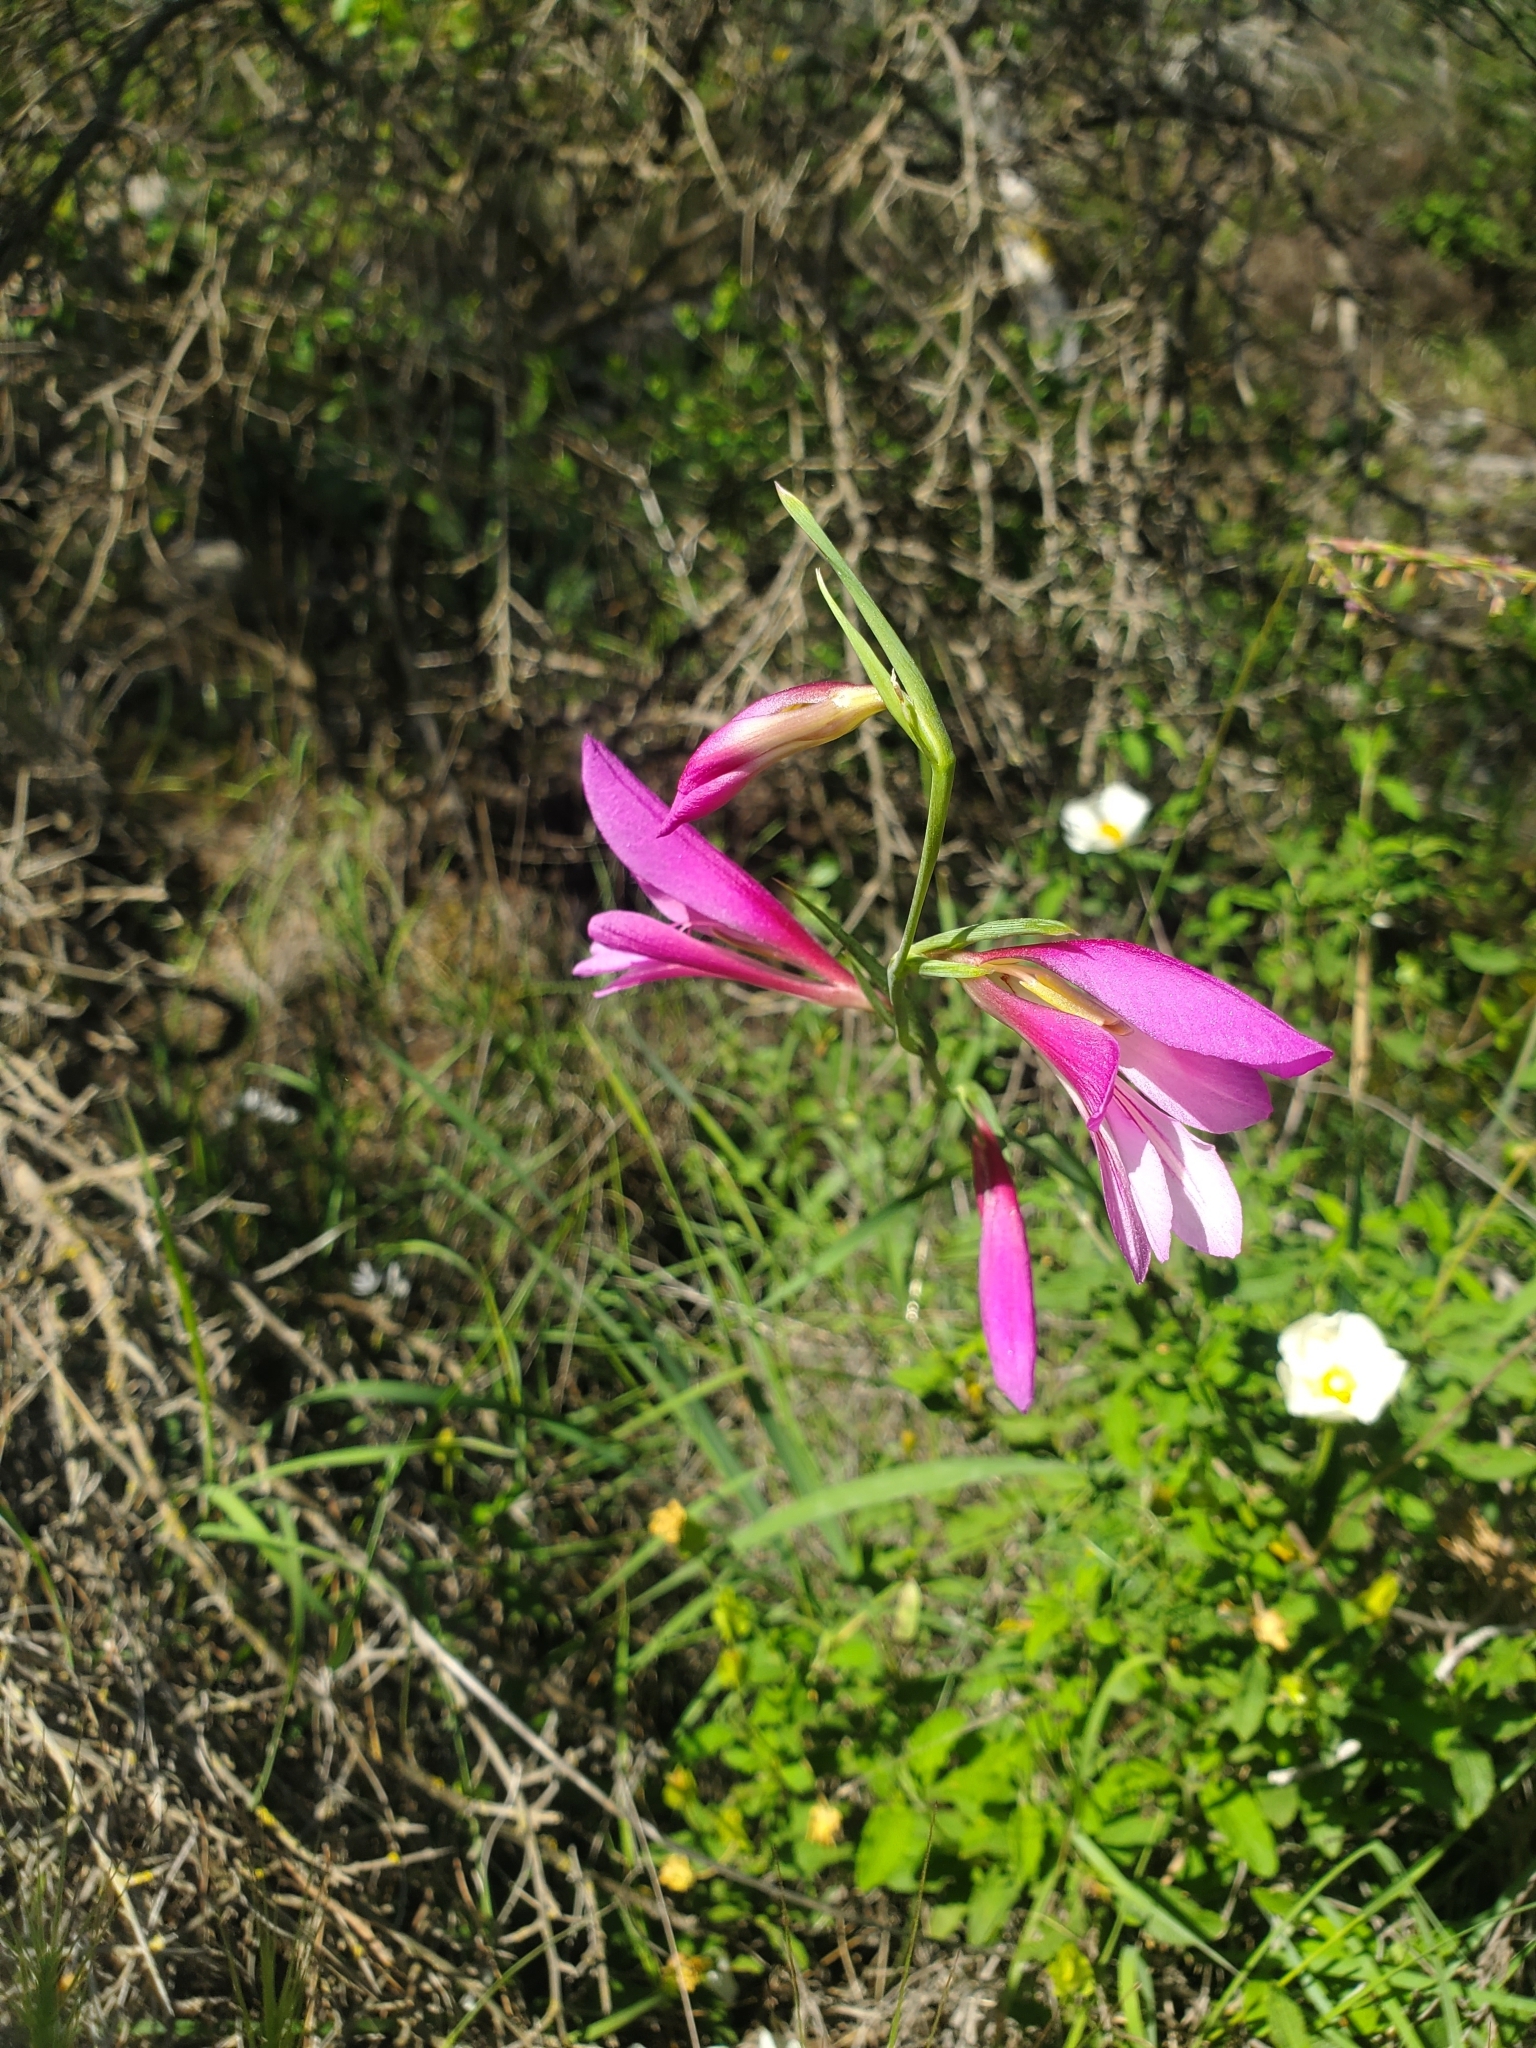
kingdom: Plantae
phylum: Tracheophyta
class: Liliopsida
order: Asparagales
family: Iridaceae
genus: Gladiolus
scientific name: Gladiolus italicus
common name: Field gladiolus
